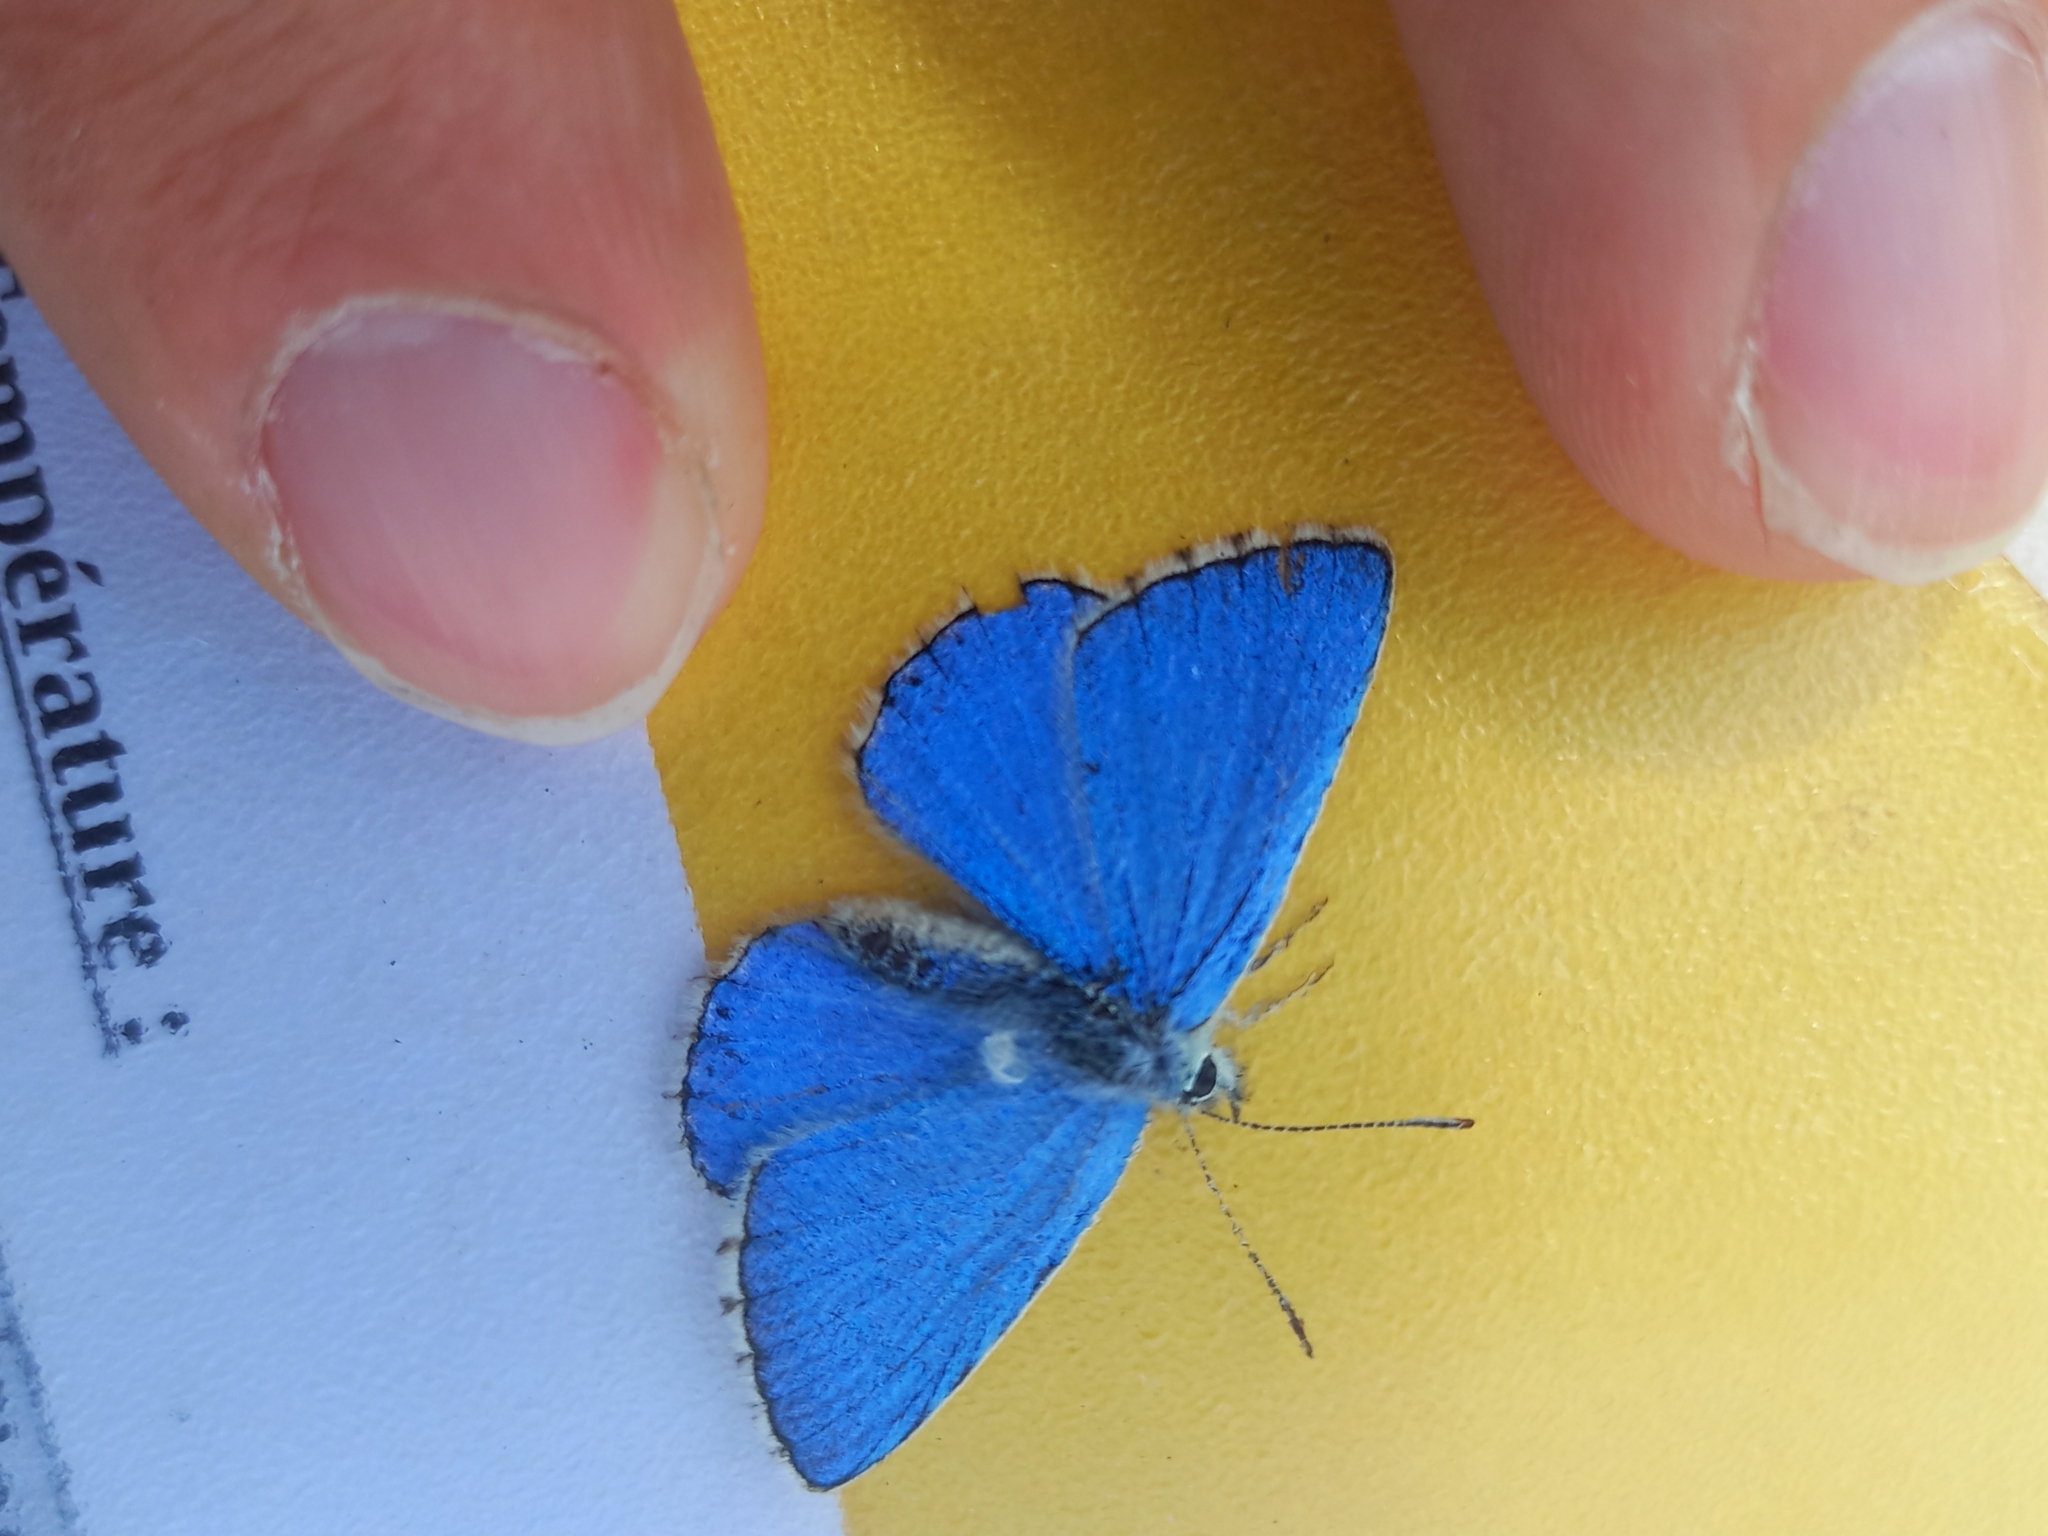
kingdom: Animalia
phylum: Arthropoda
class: Insecta
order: Lepidoptera
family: Lycaenidae
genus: Lysandra
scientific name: Lysandra bellargus
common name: Adonis blue
